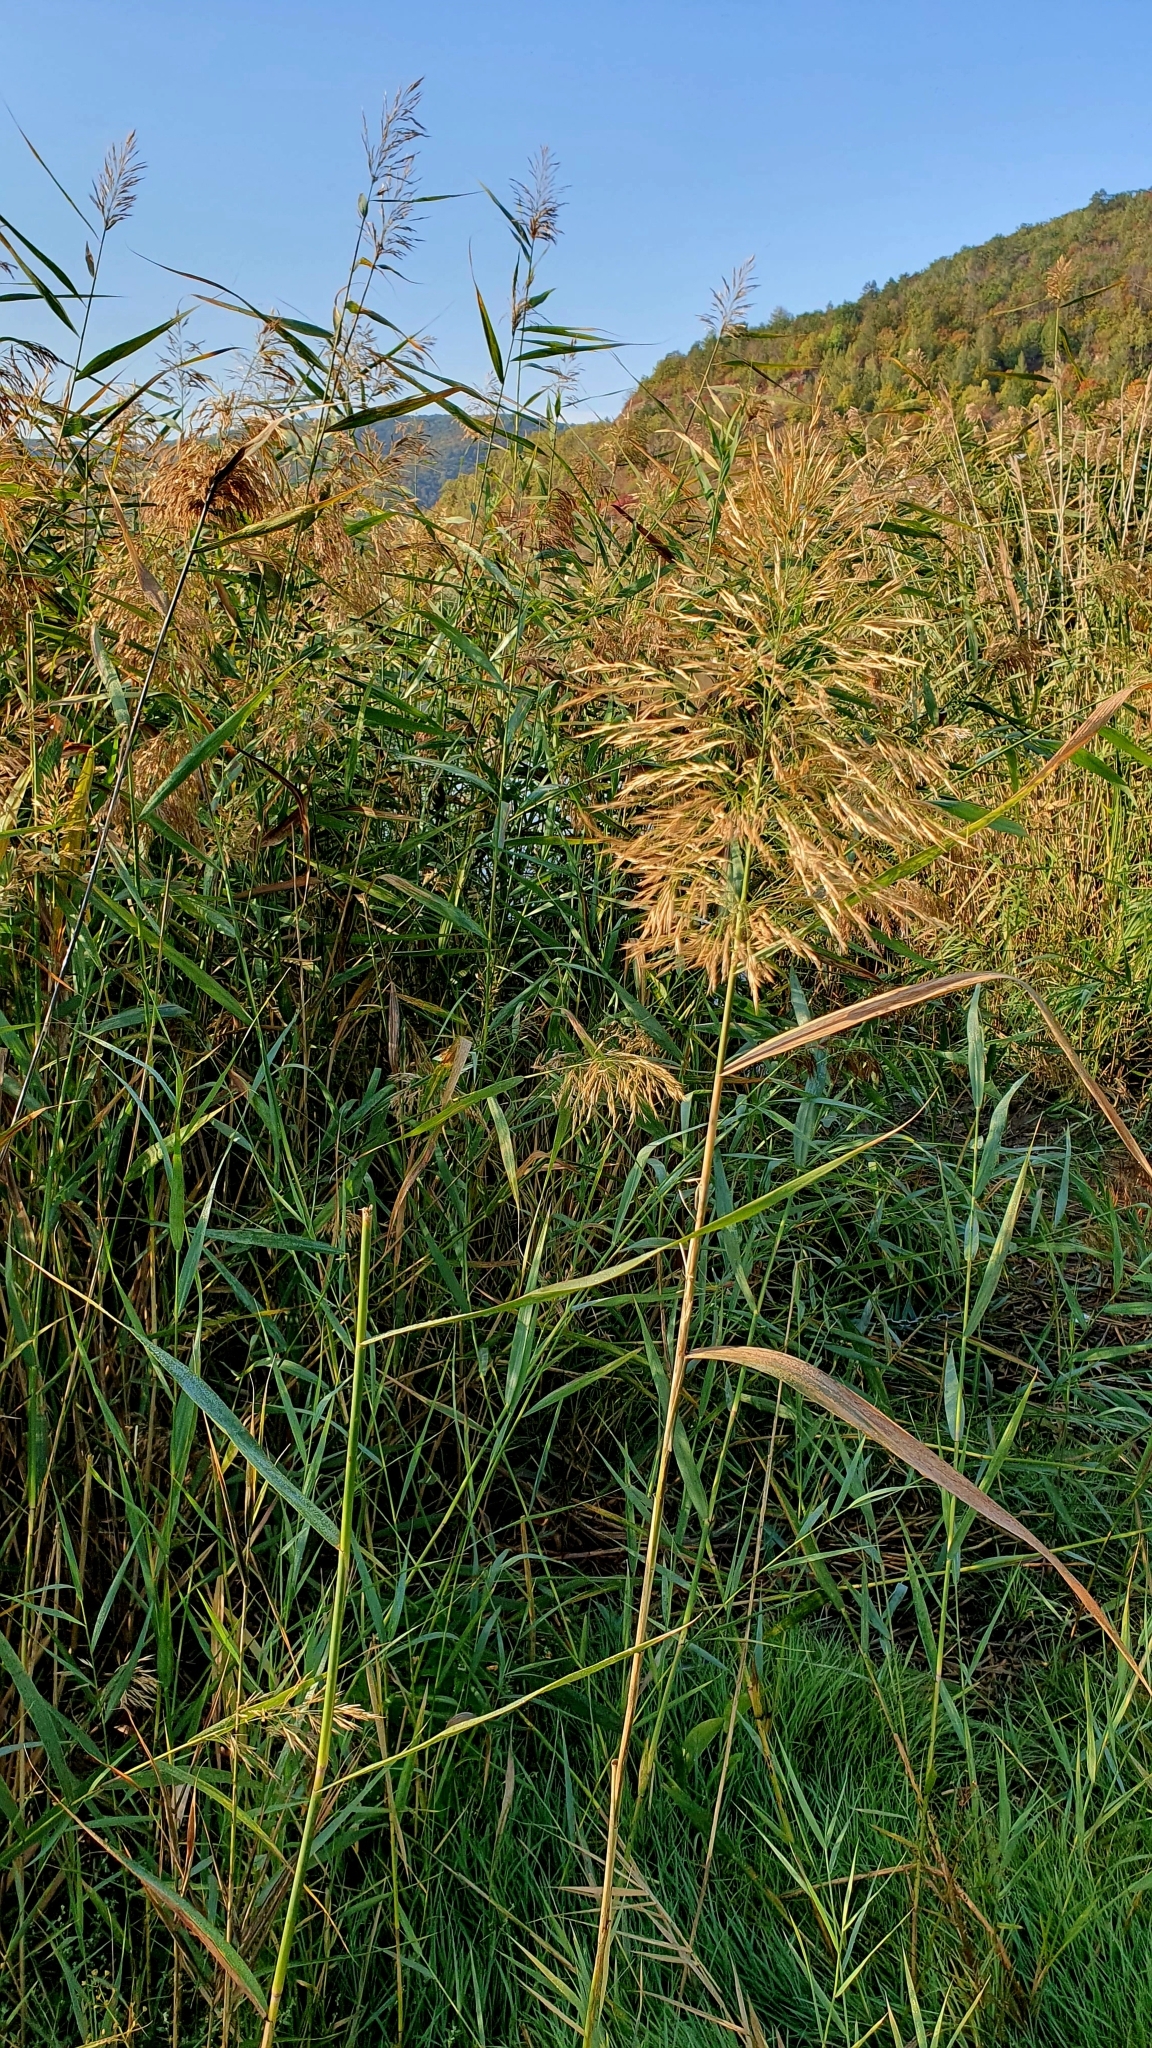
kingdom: Plantae
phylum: Tracheophyta
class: Liliopsida
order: Poales
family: Poaceae
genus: Phragmites
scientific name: Phragmites australis
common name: Common reed
